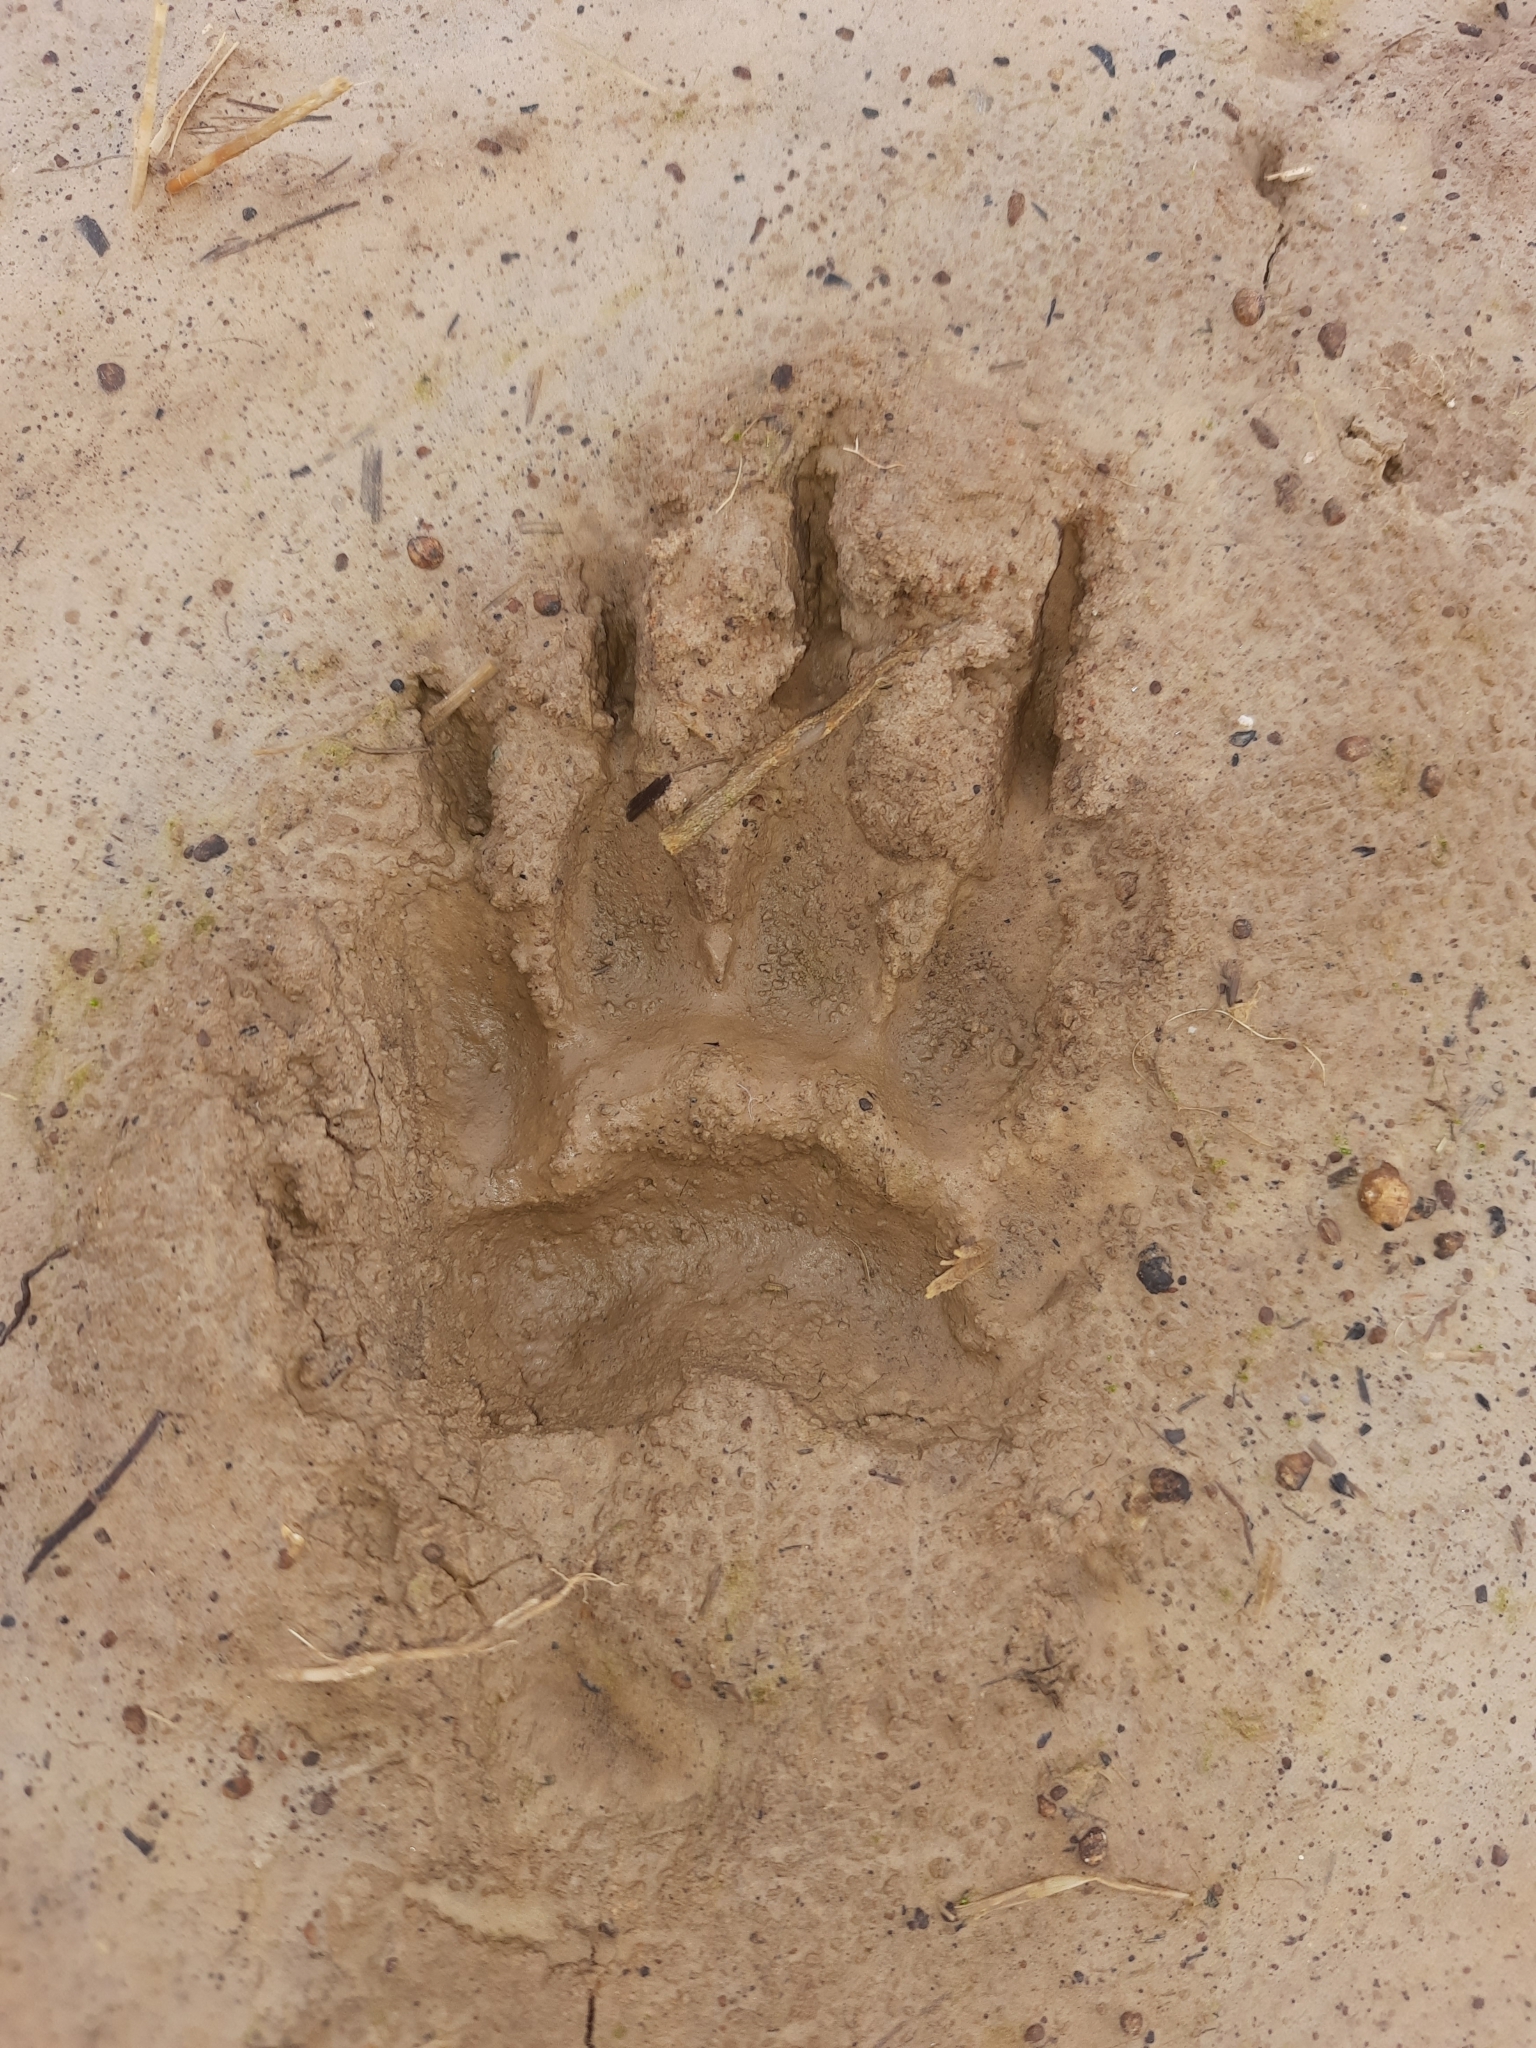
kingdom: Animalia
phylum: Chordata
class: Mammalia
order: Carnivora
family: Mustelidae
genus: Meles
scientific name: Meles meles
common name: Eurasian badger
